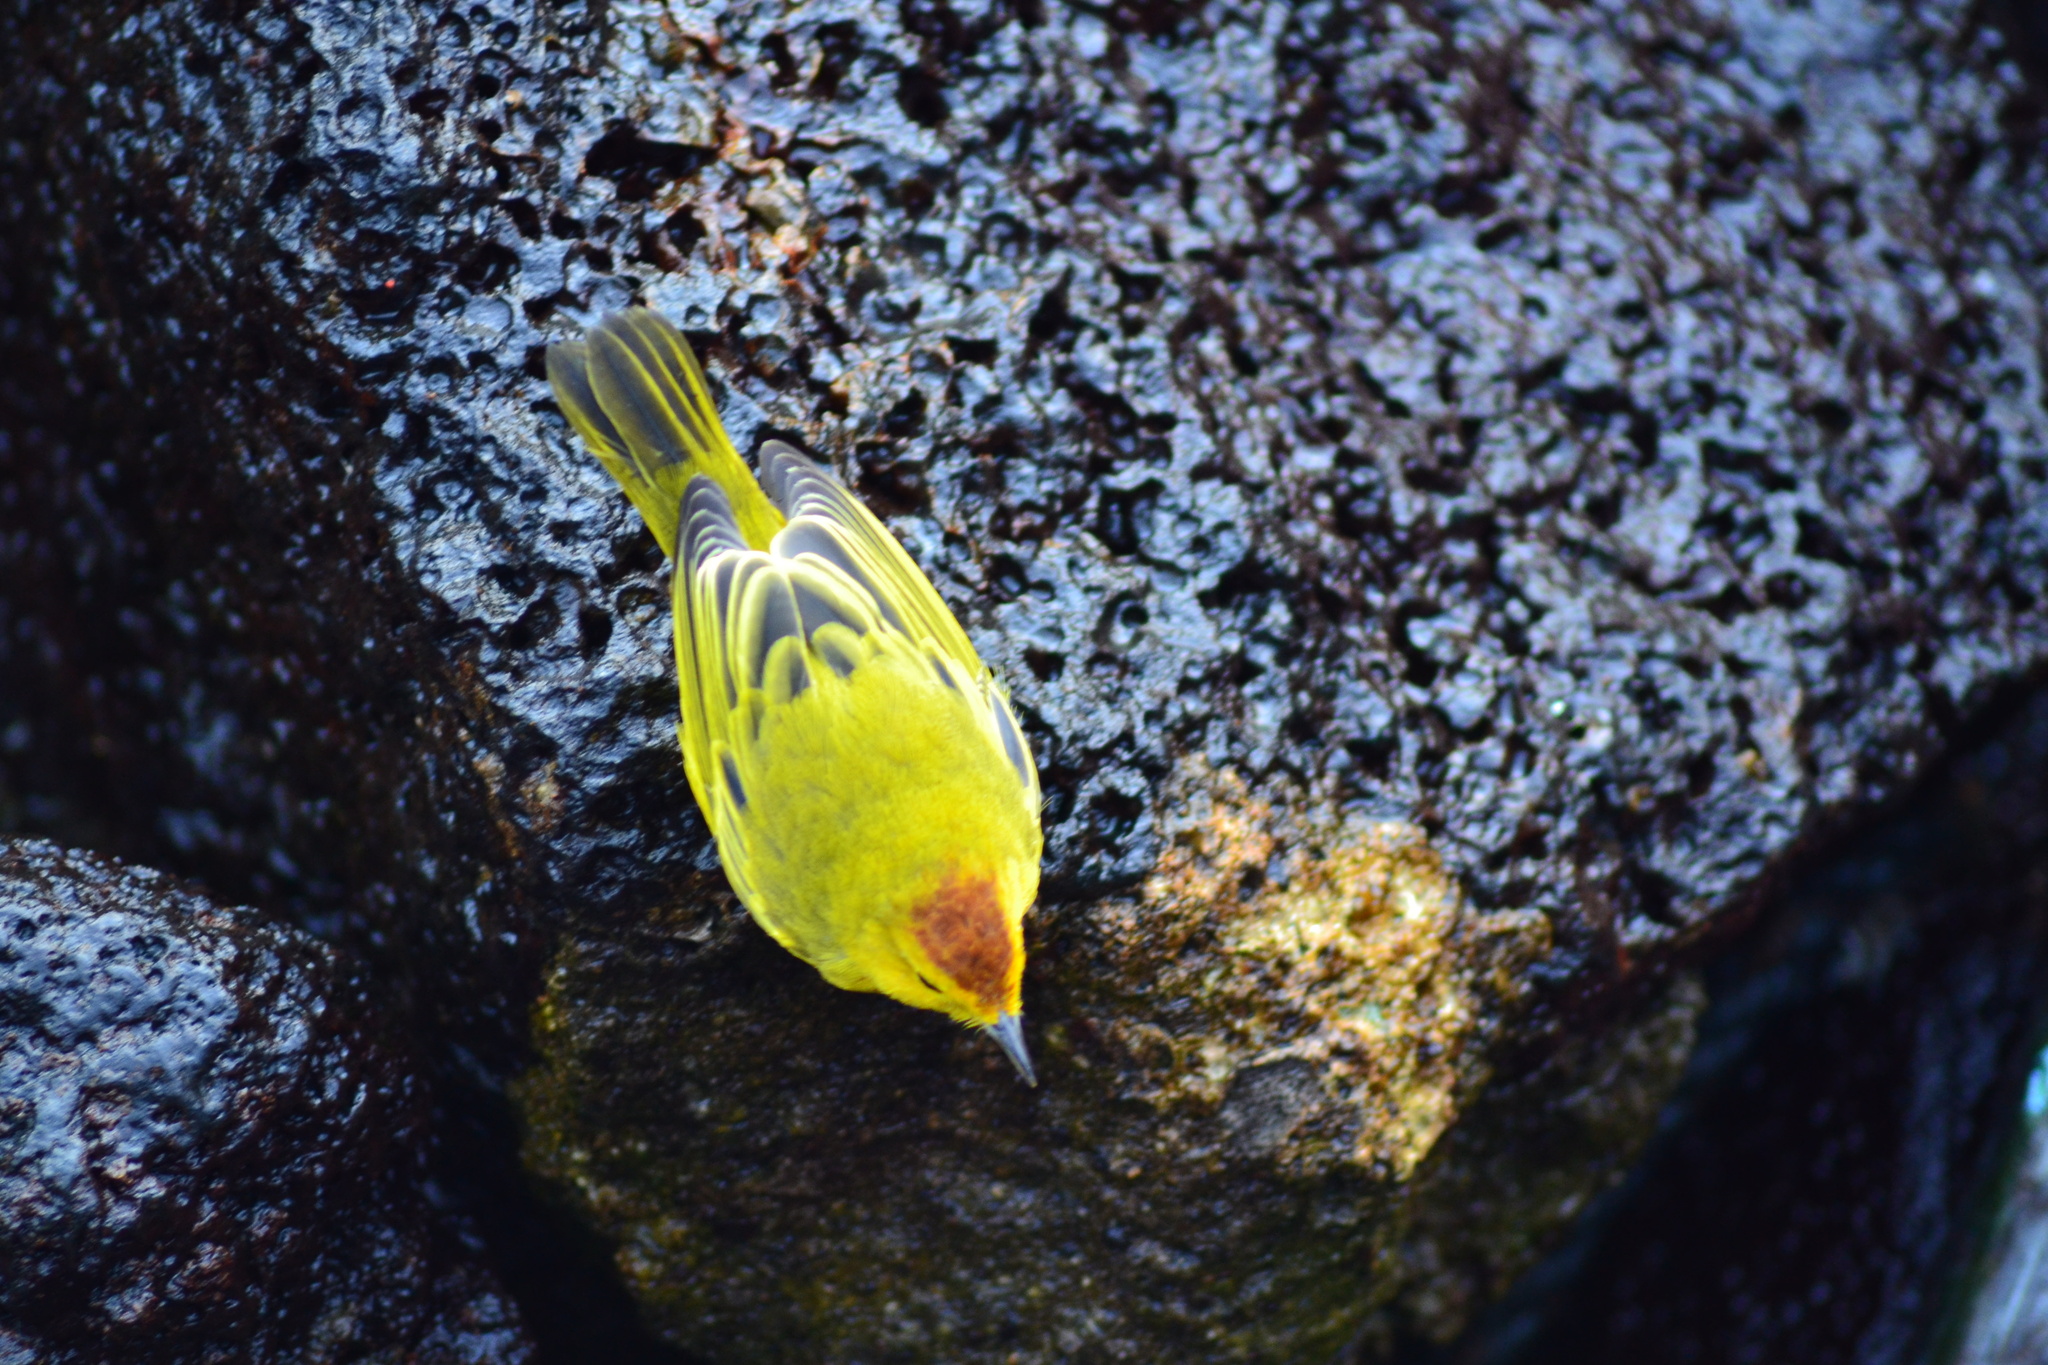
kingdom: Animalia
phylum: Chordata
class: Aves
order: Passeriformes
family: Parulidae
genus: Setophaga
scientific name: Setophaga petechia
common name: Yellow warbler
